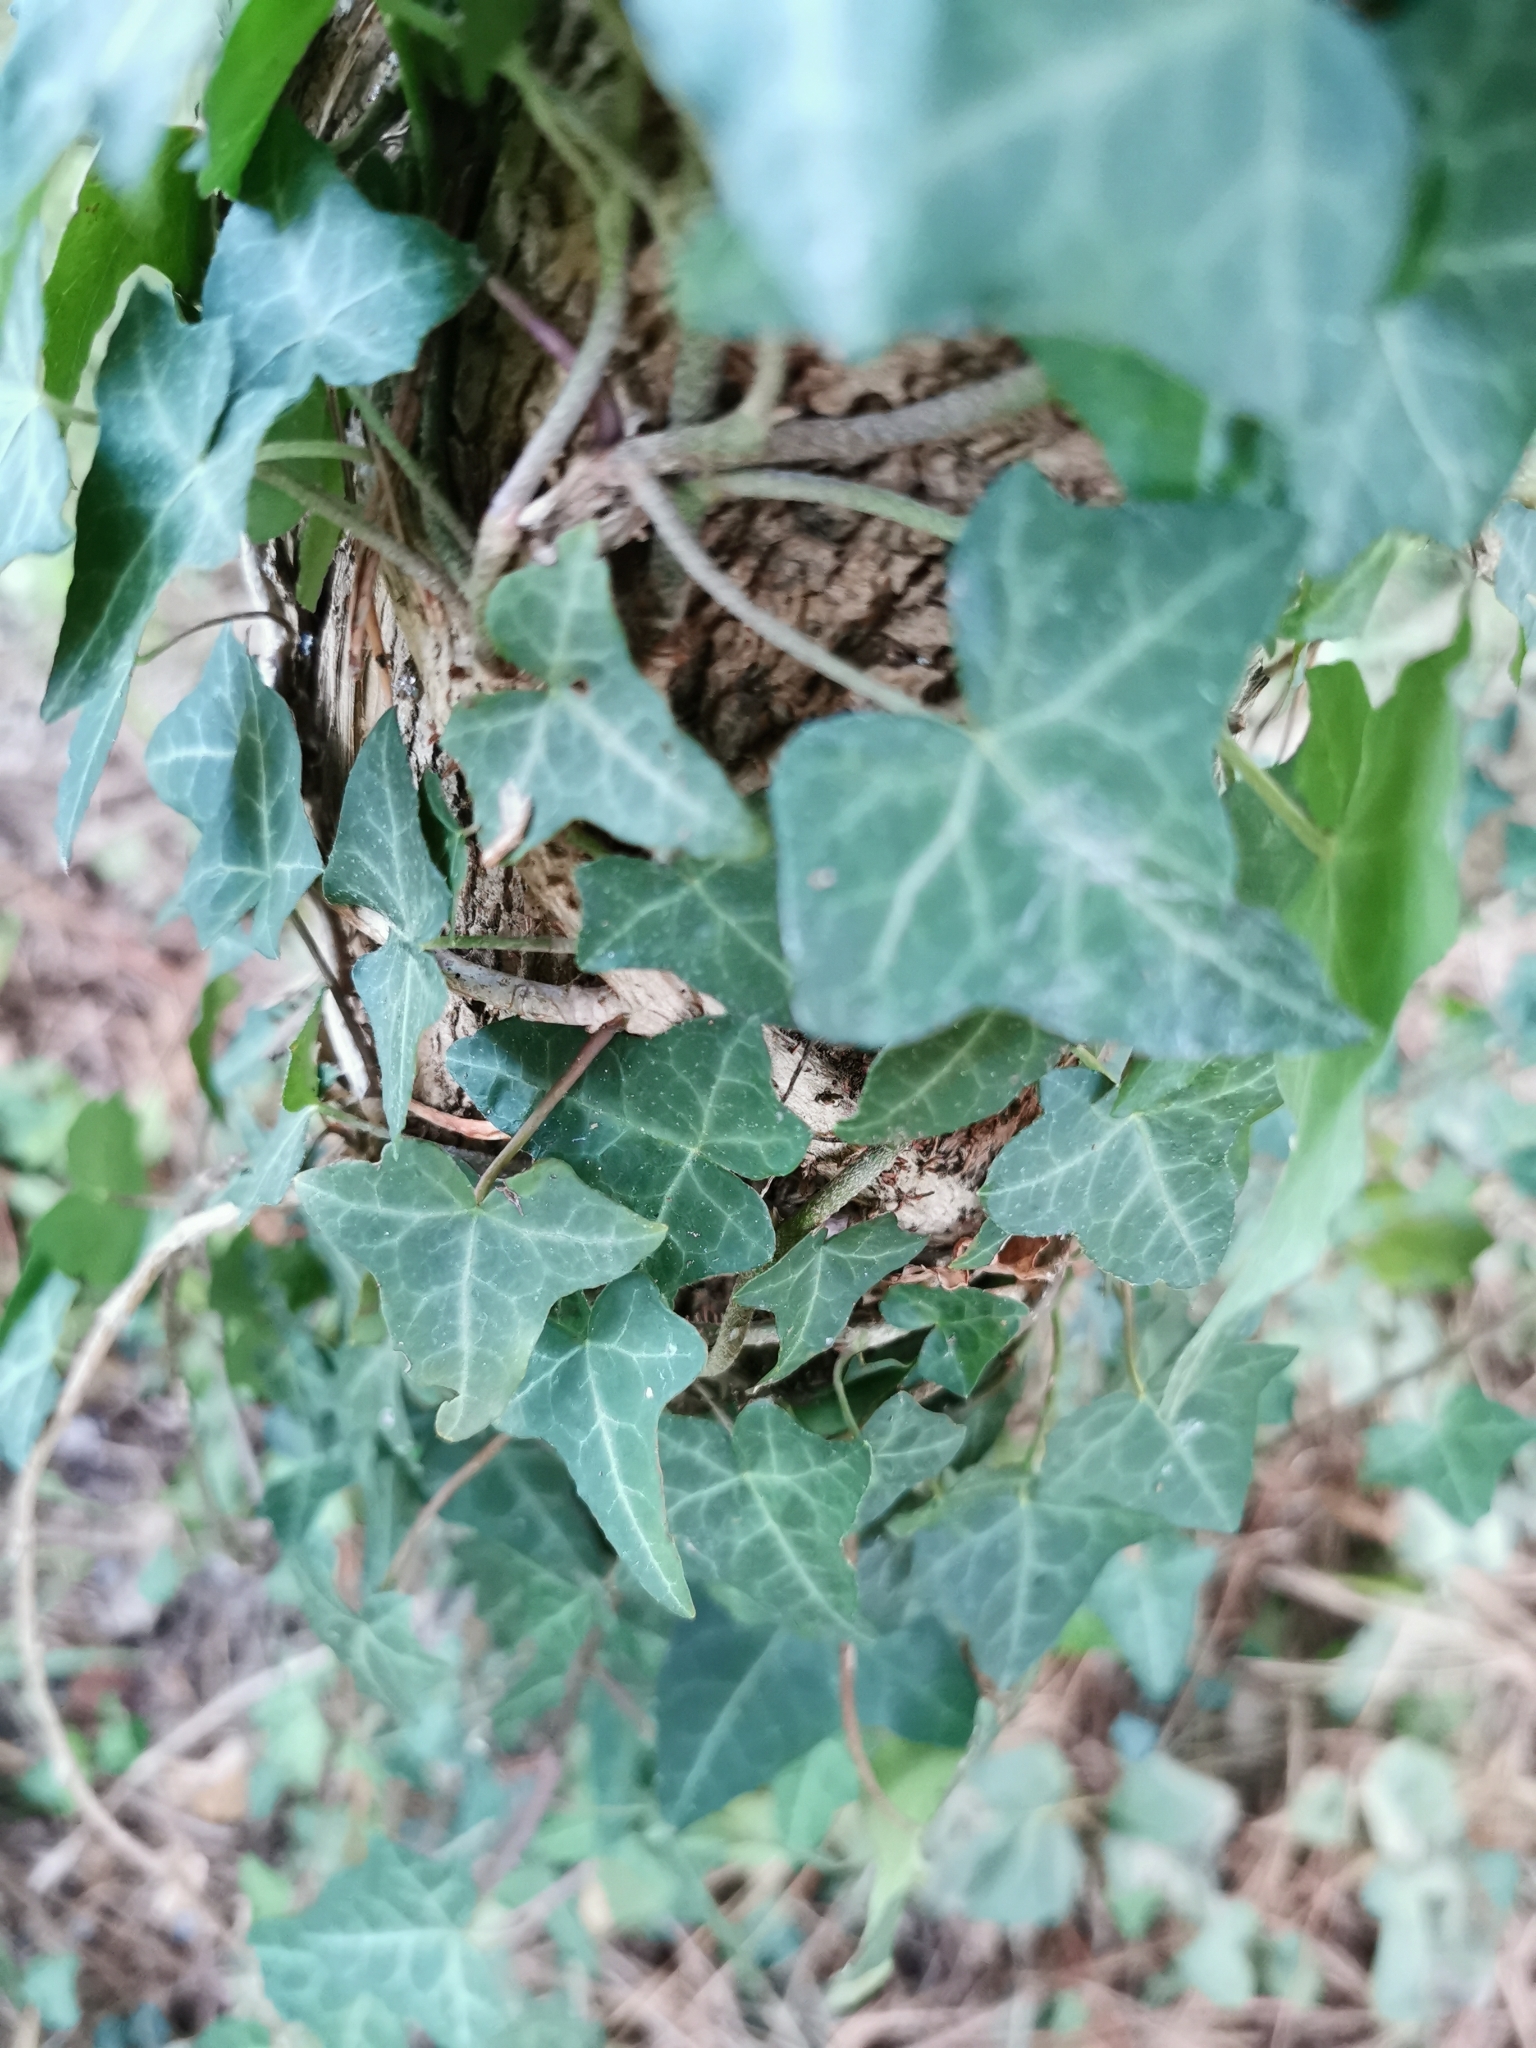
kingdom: Plantae
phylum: Tracheophyta
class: Magnoliopsida
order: Apiales
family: Araliaceae
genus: Hedera
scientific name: Hedera helix
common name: Ivy
